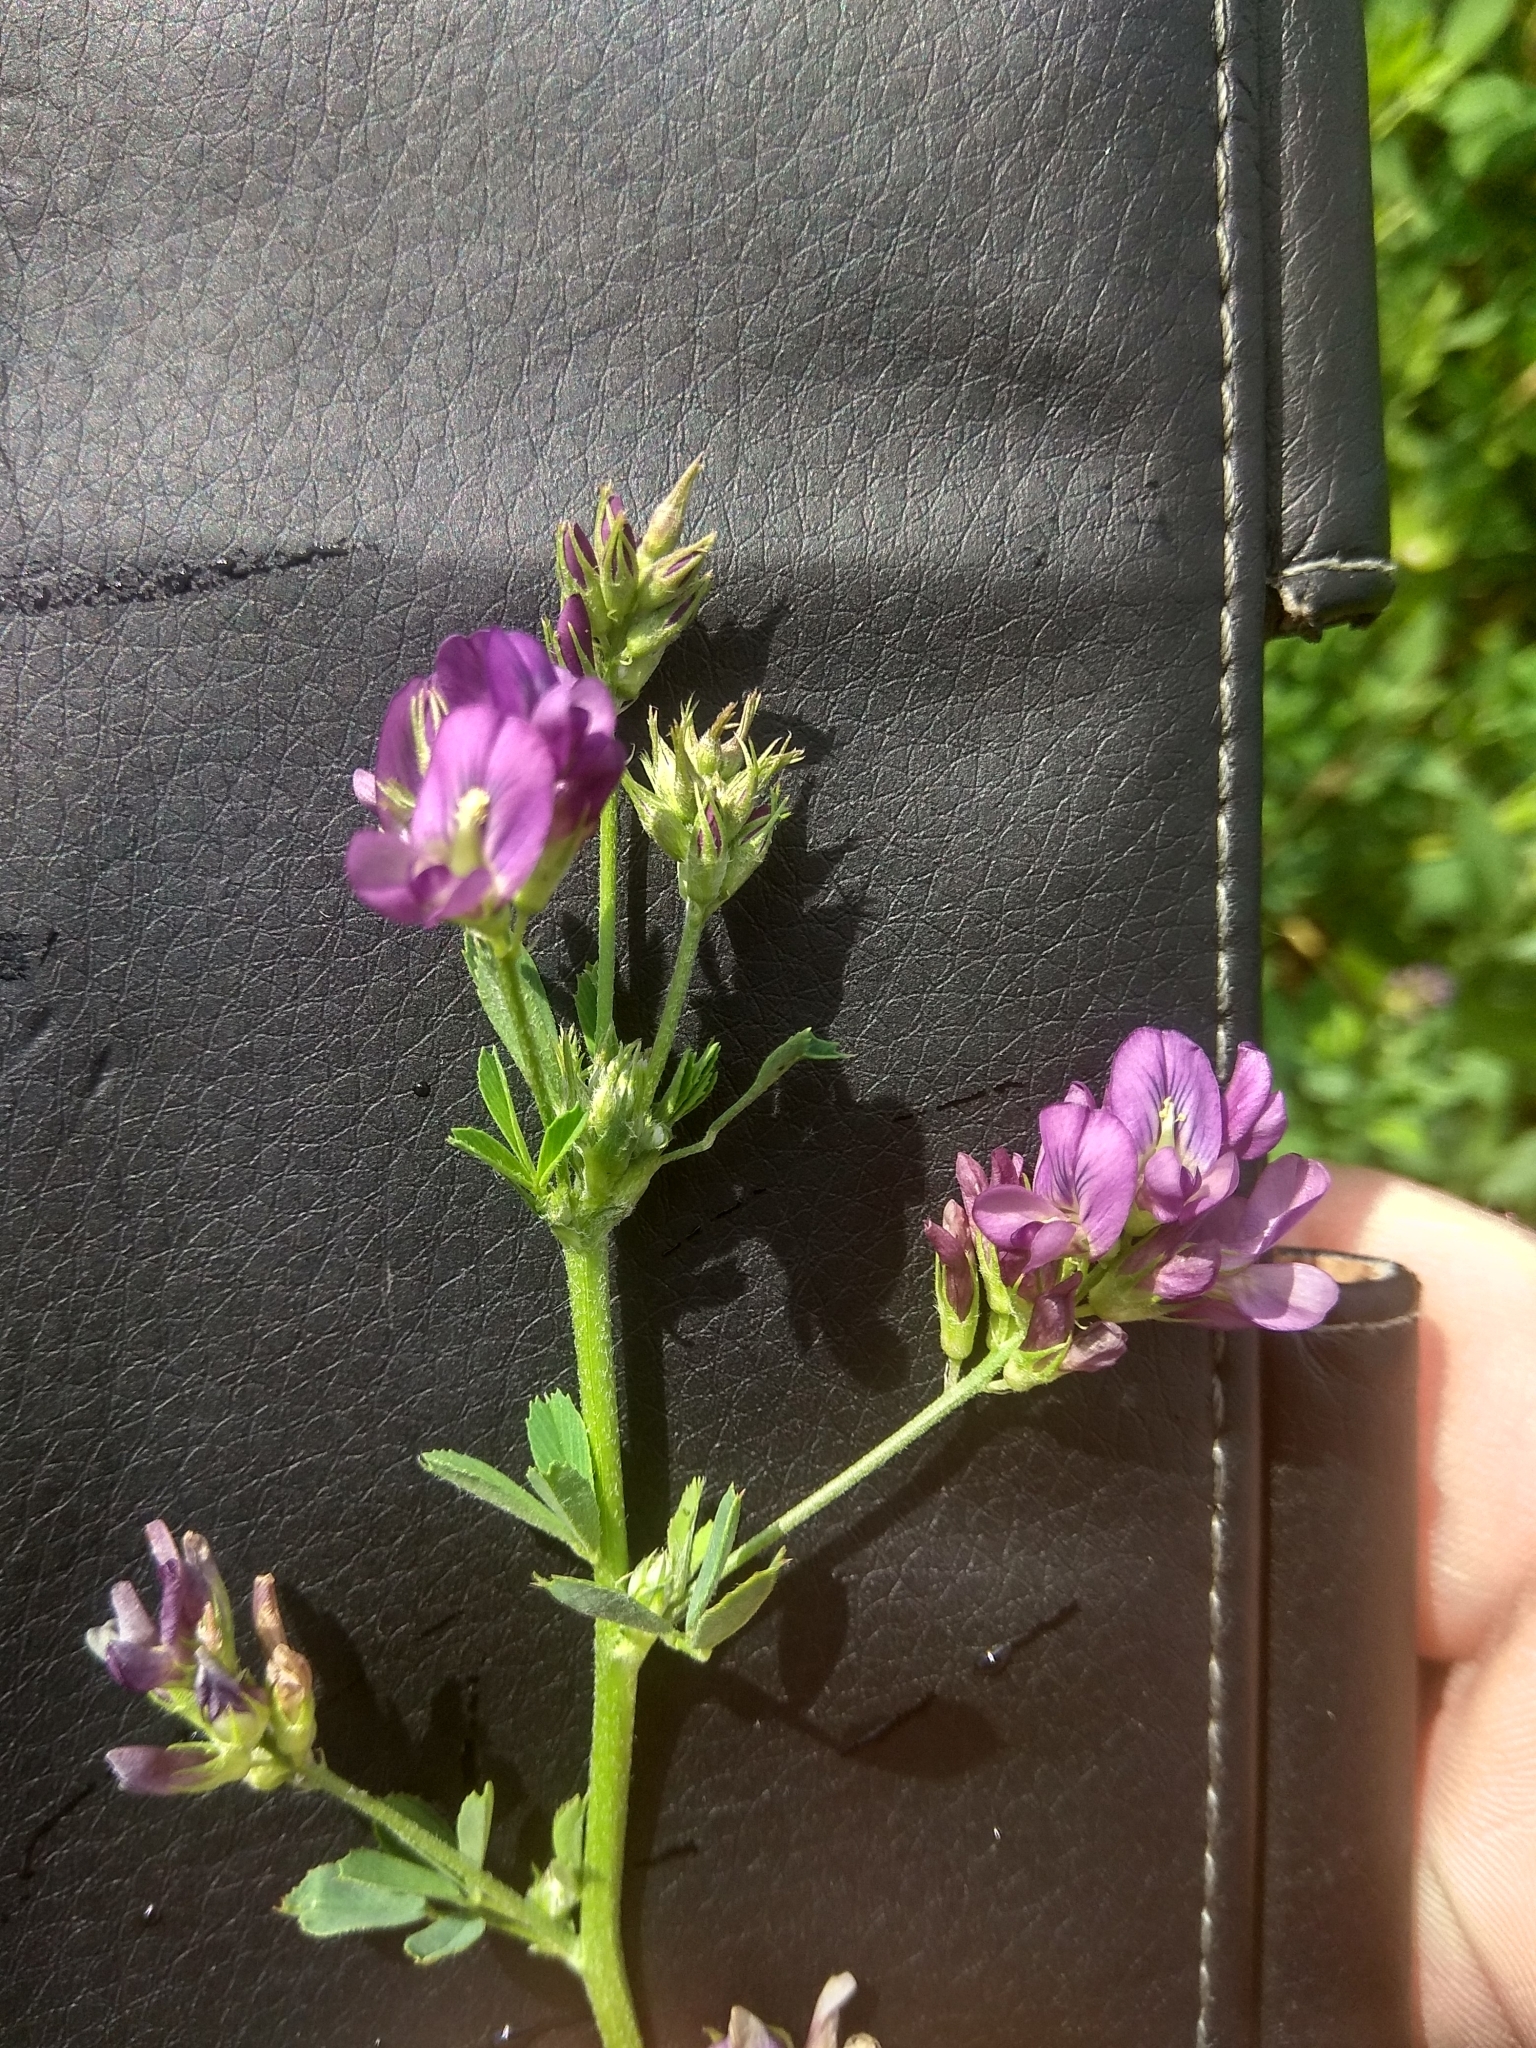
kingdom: Plantae
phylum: Tracheophyta
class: Magnoliopsida
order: Fabales
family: Fabaceae
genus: Medicago
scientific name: Medicago sativa
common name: Alfalfa
